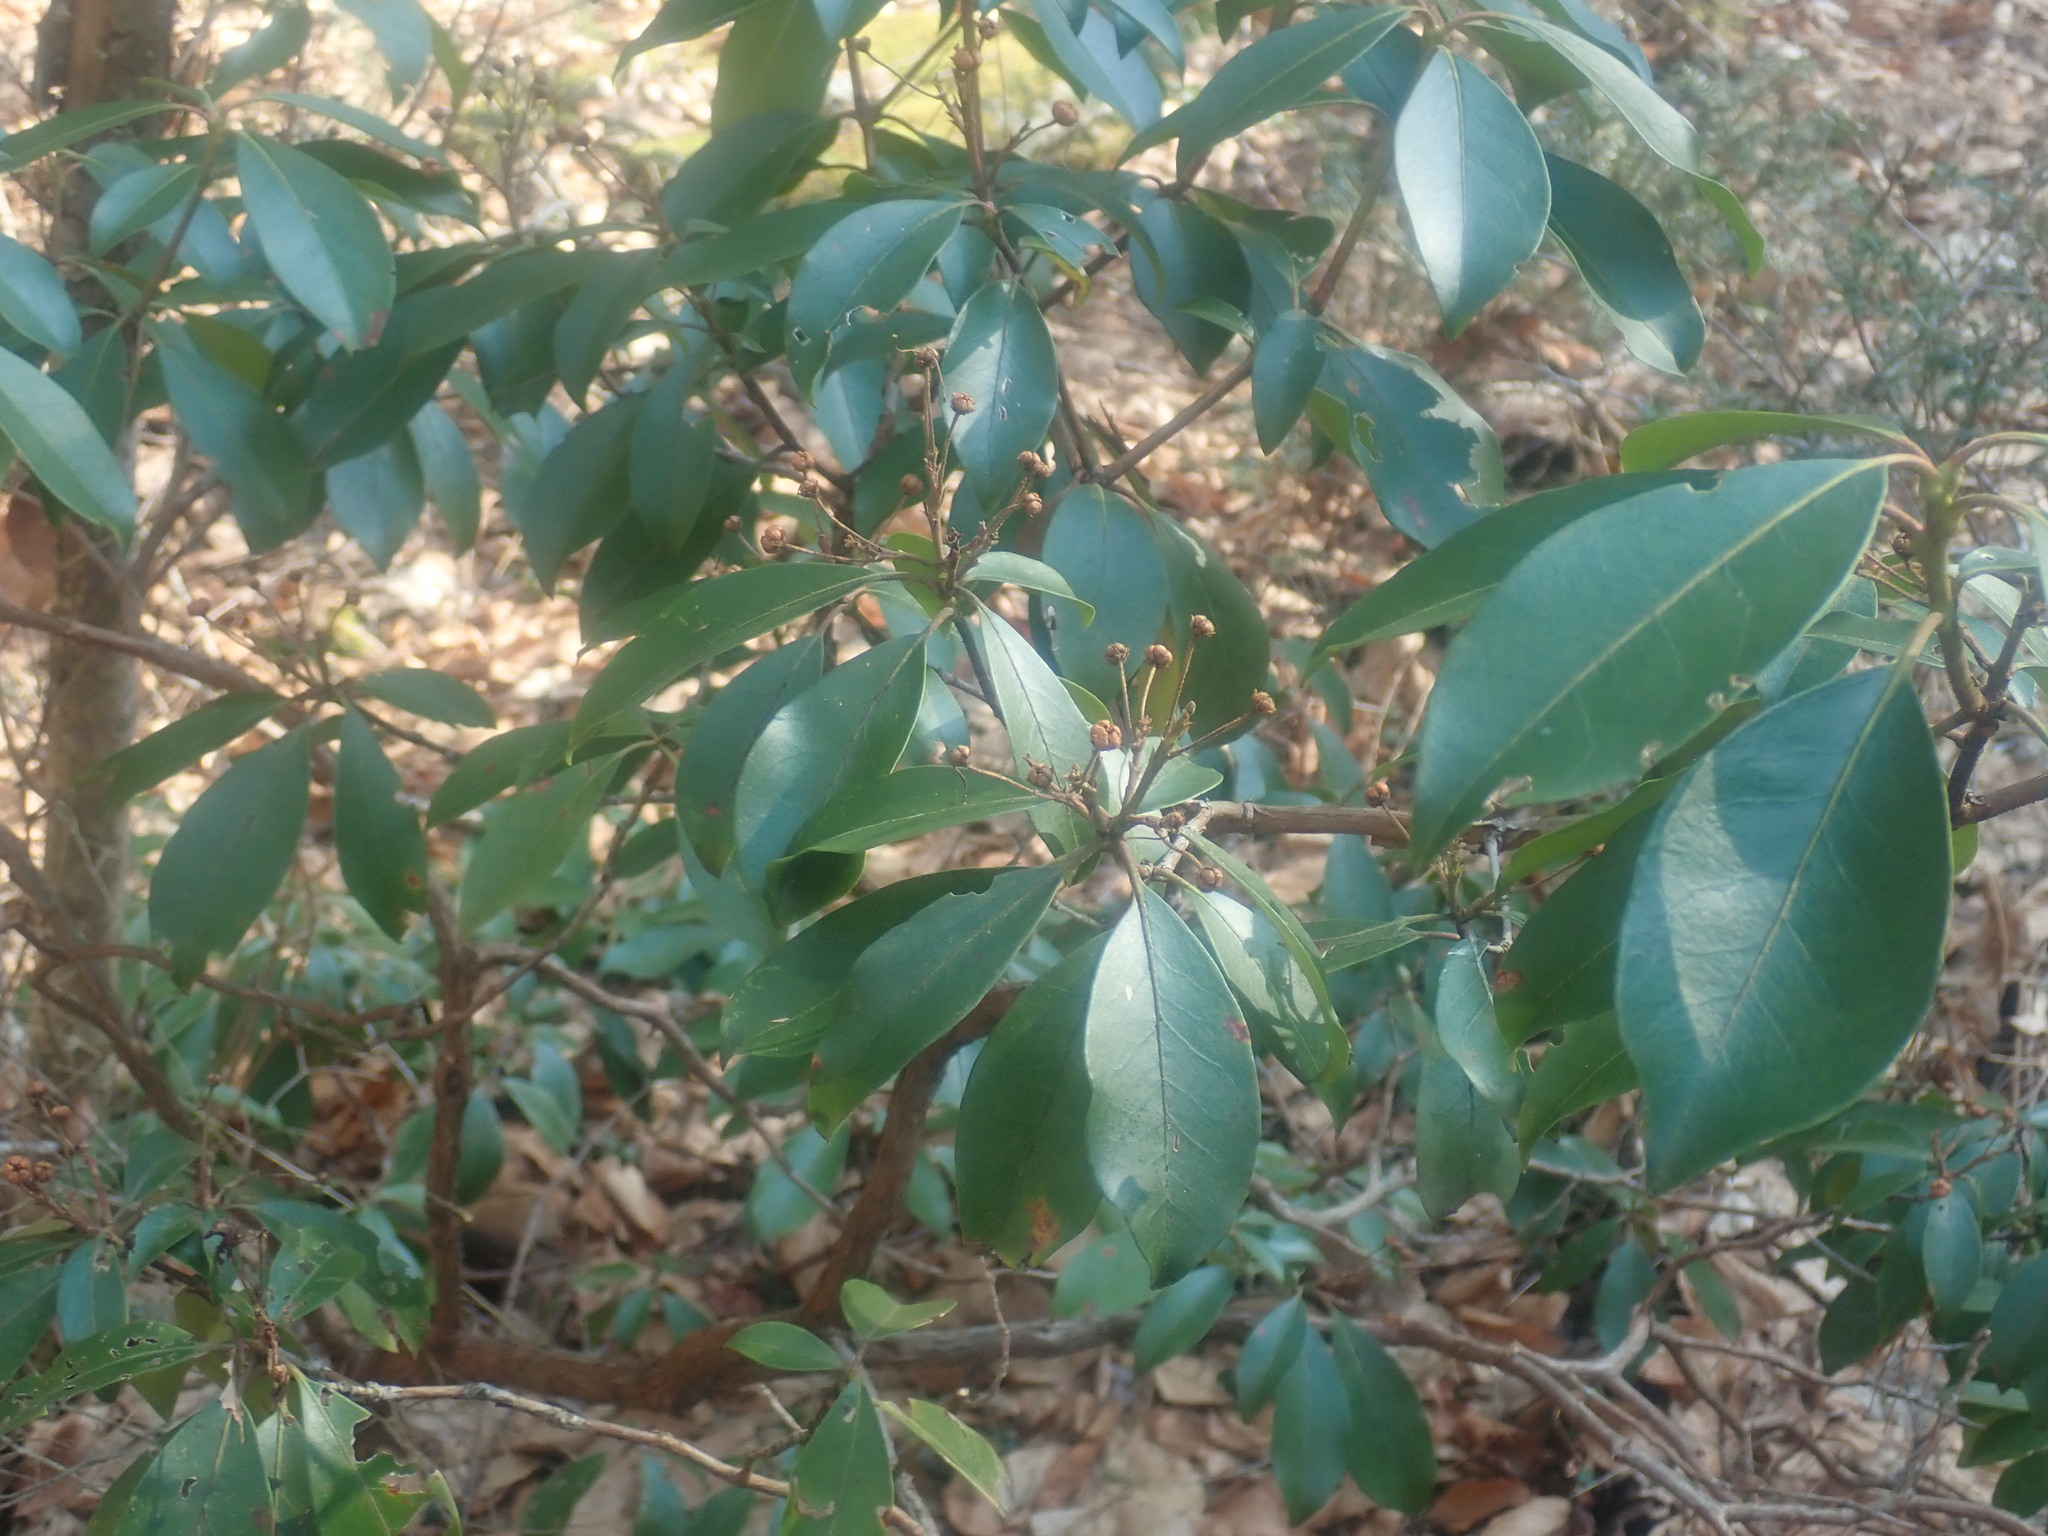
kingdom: Plantae
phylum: Tracheophyta
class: Magnoliopsida
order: Ericales
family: Ericaceae
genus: Kalmia
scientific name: Kalmia latifolia
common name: Mountain-laurel
